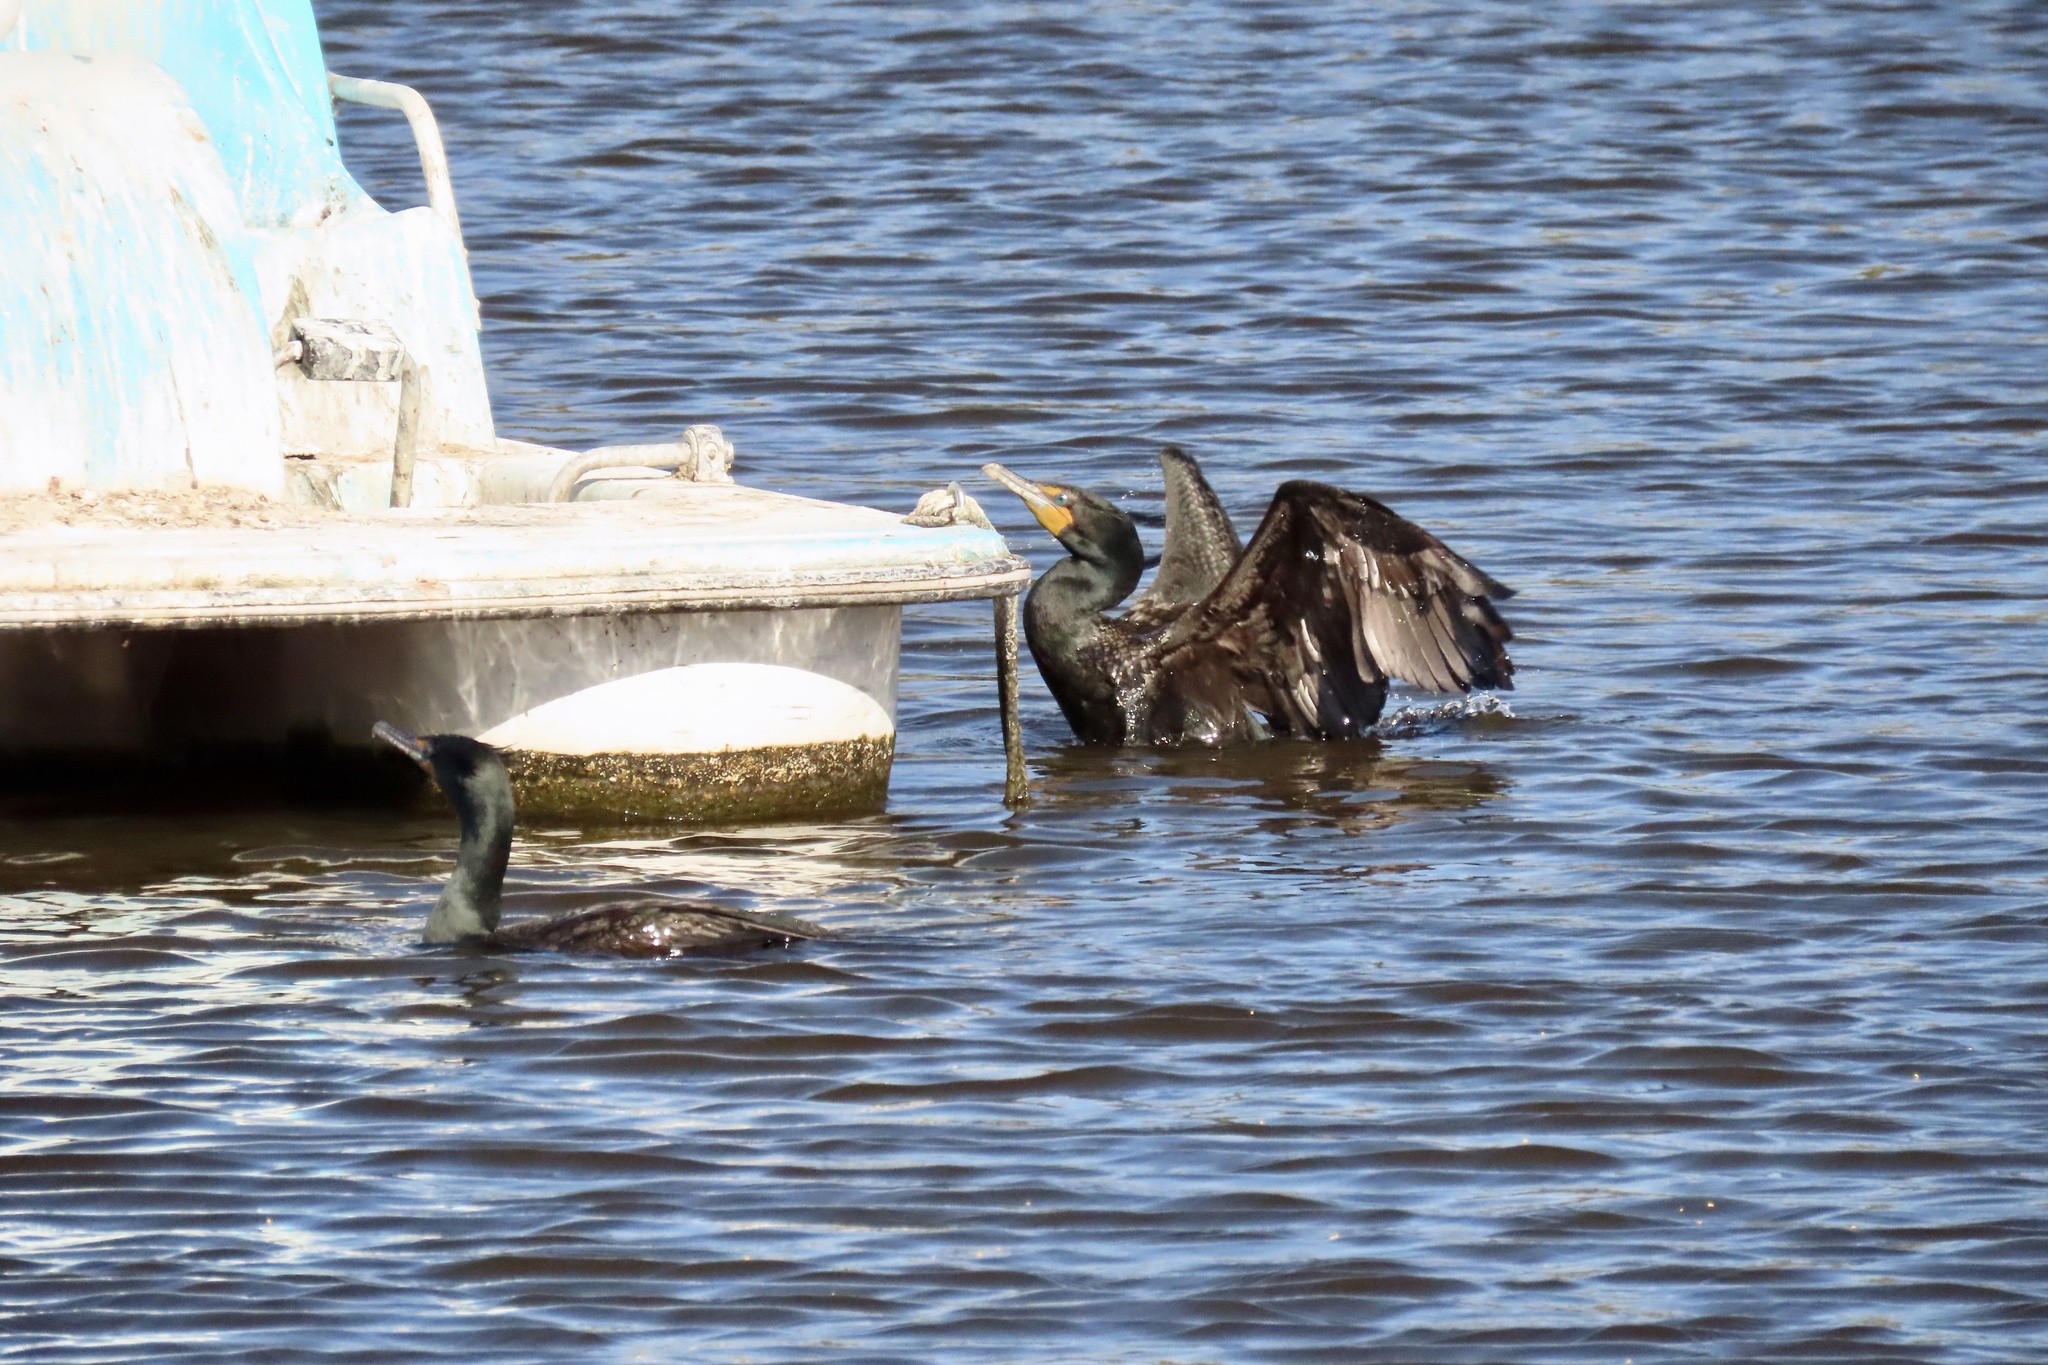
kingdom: Animalia
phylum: Chordata
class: Aves
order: Suliformes
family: Phalacrocoracidae
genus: Phalacrocorax
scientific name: Phalacrocorax auritus
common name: Double-crested cormorant
